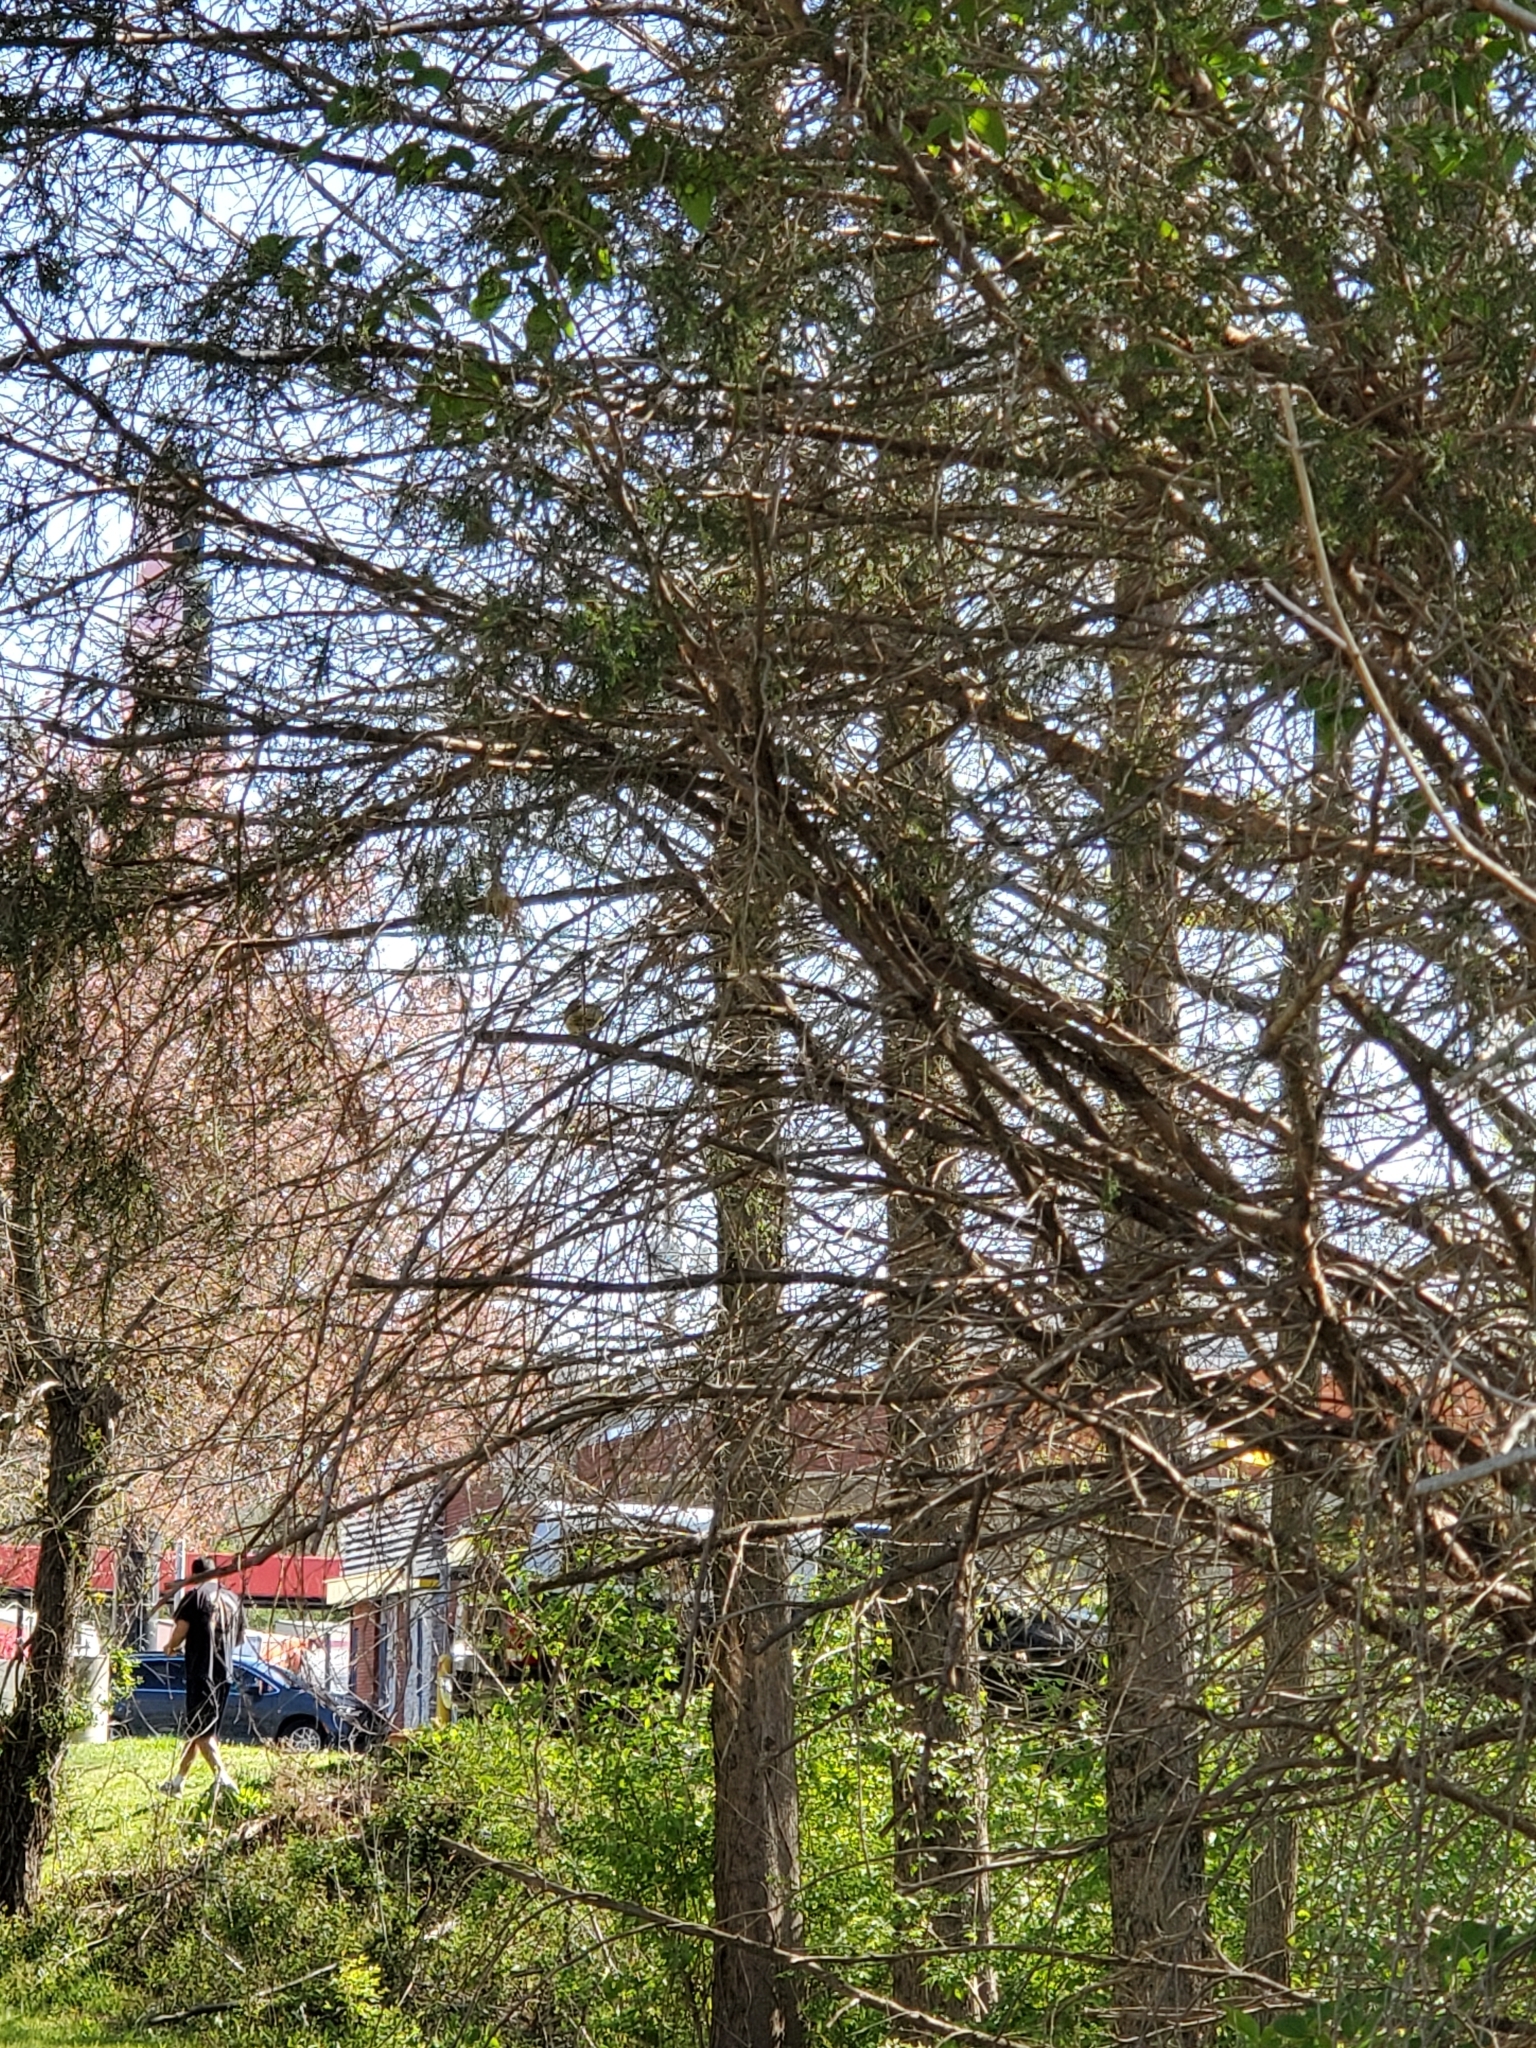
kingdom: Animalia
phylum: Chordata
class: Aves
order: Passeriformes
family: Regulidae
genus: Regulus
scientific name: Regulus calendula
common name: Ruby-crowned kinglet
